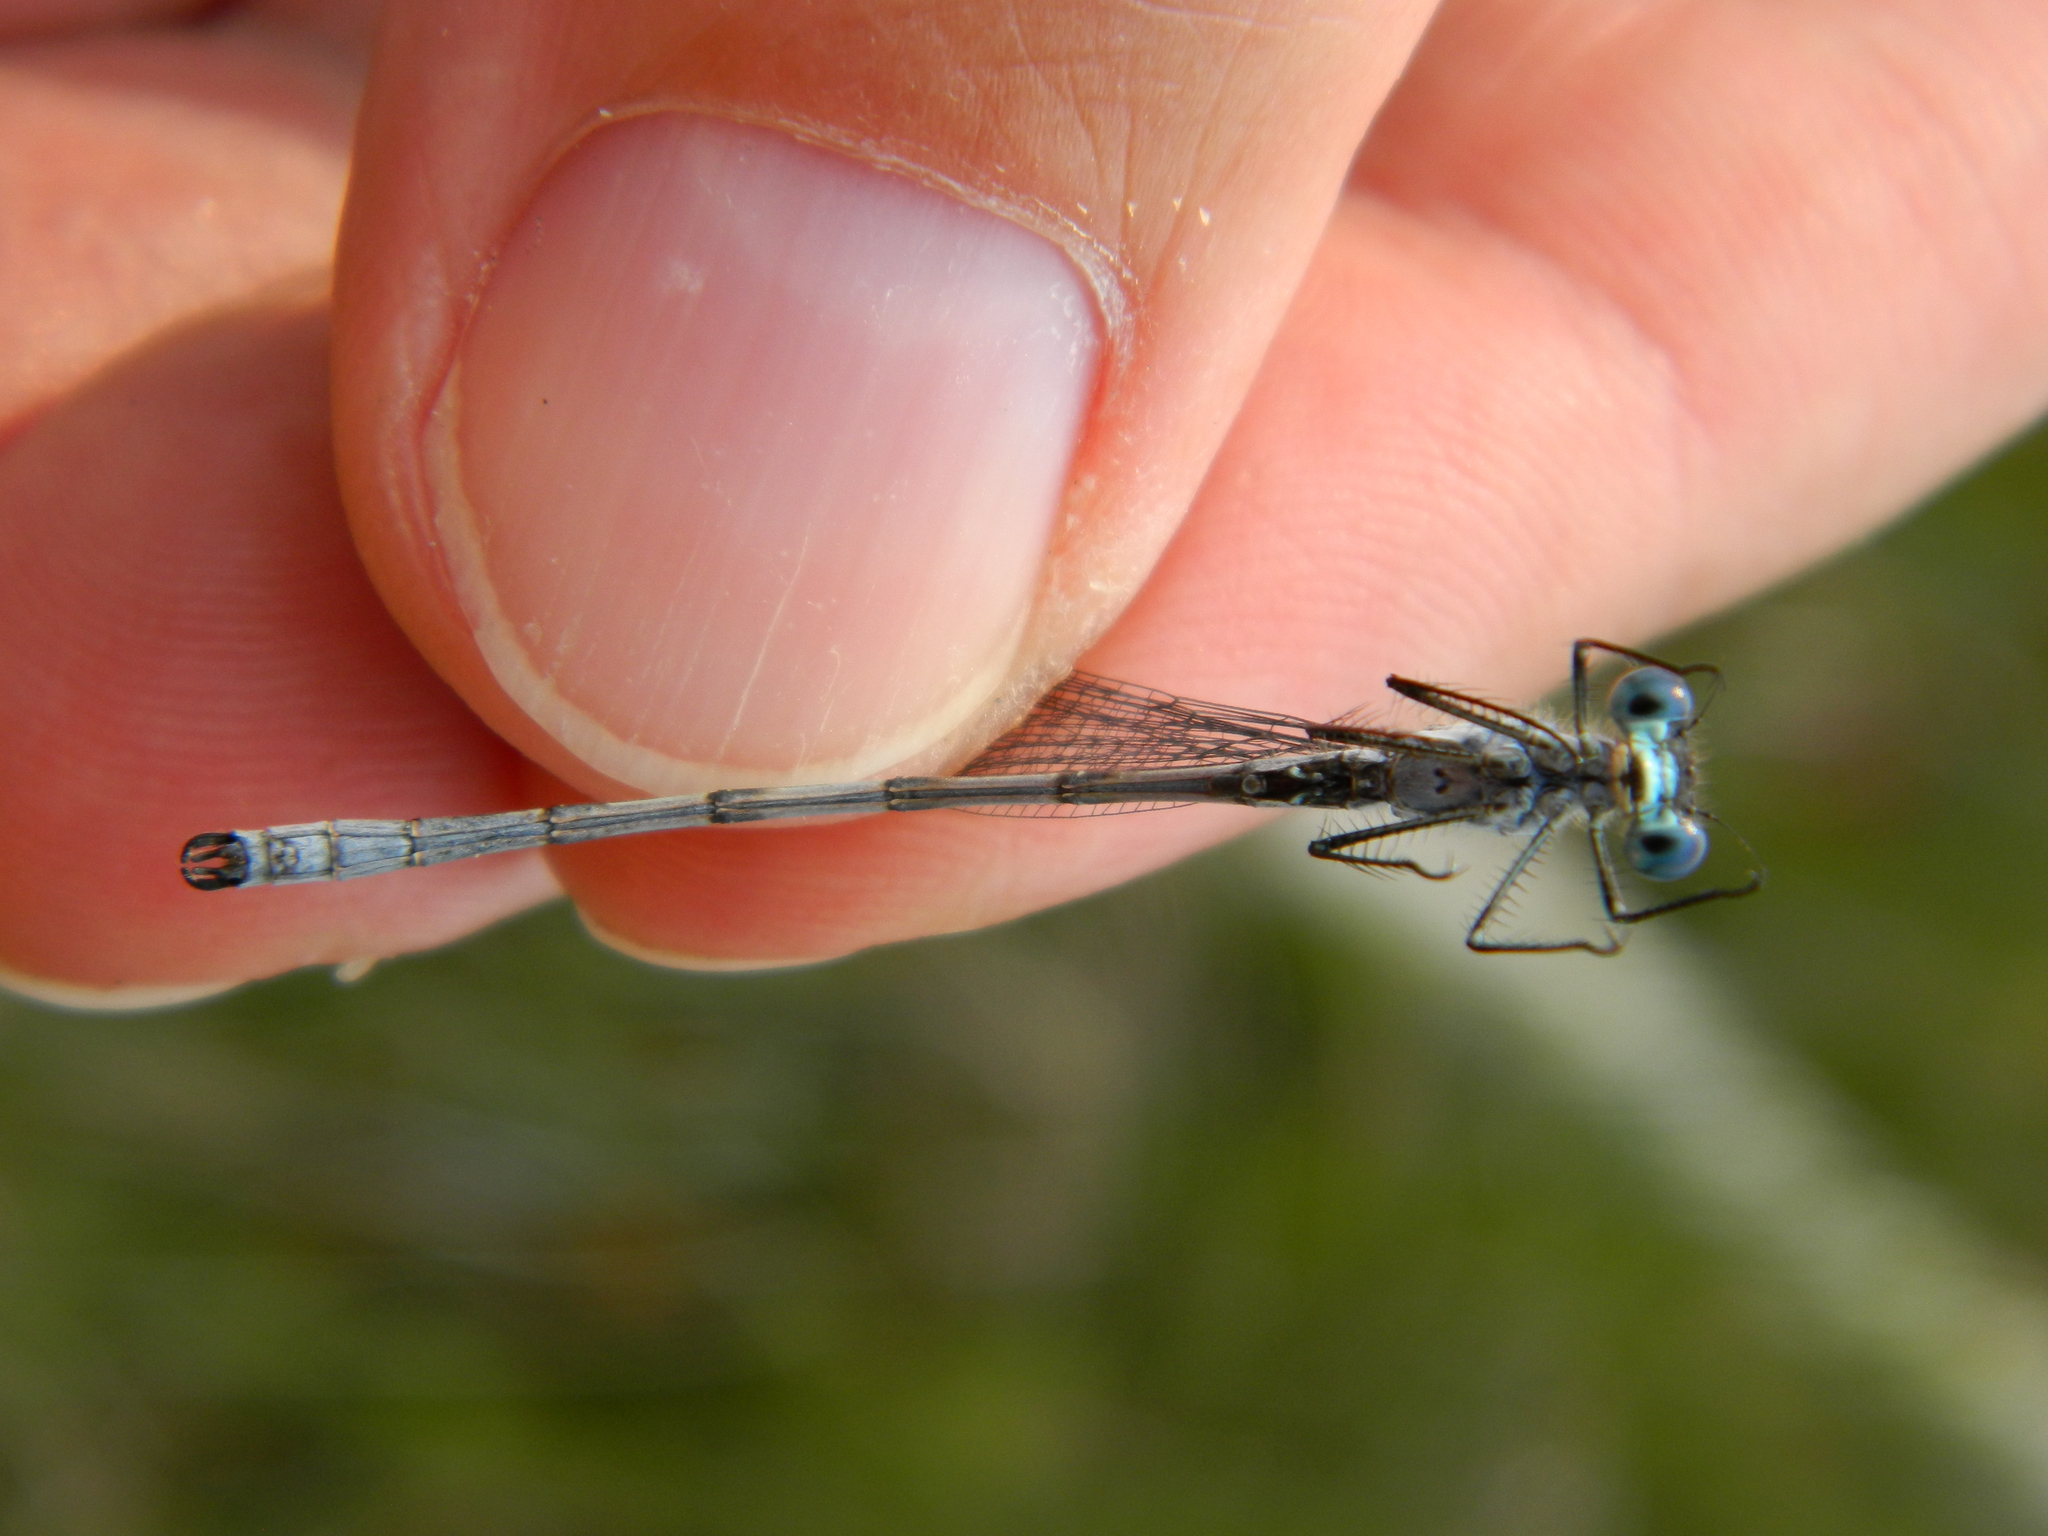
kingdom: Animalia
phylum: Arthropoda
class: Insecta
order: Odonata
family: Lestidae
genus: Lestes
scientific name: Lestes disjunctus
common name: Northern spreadwing
